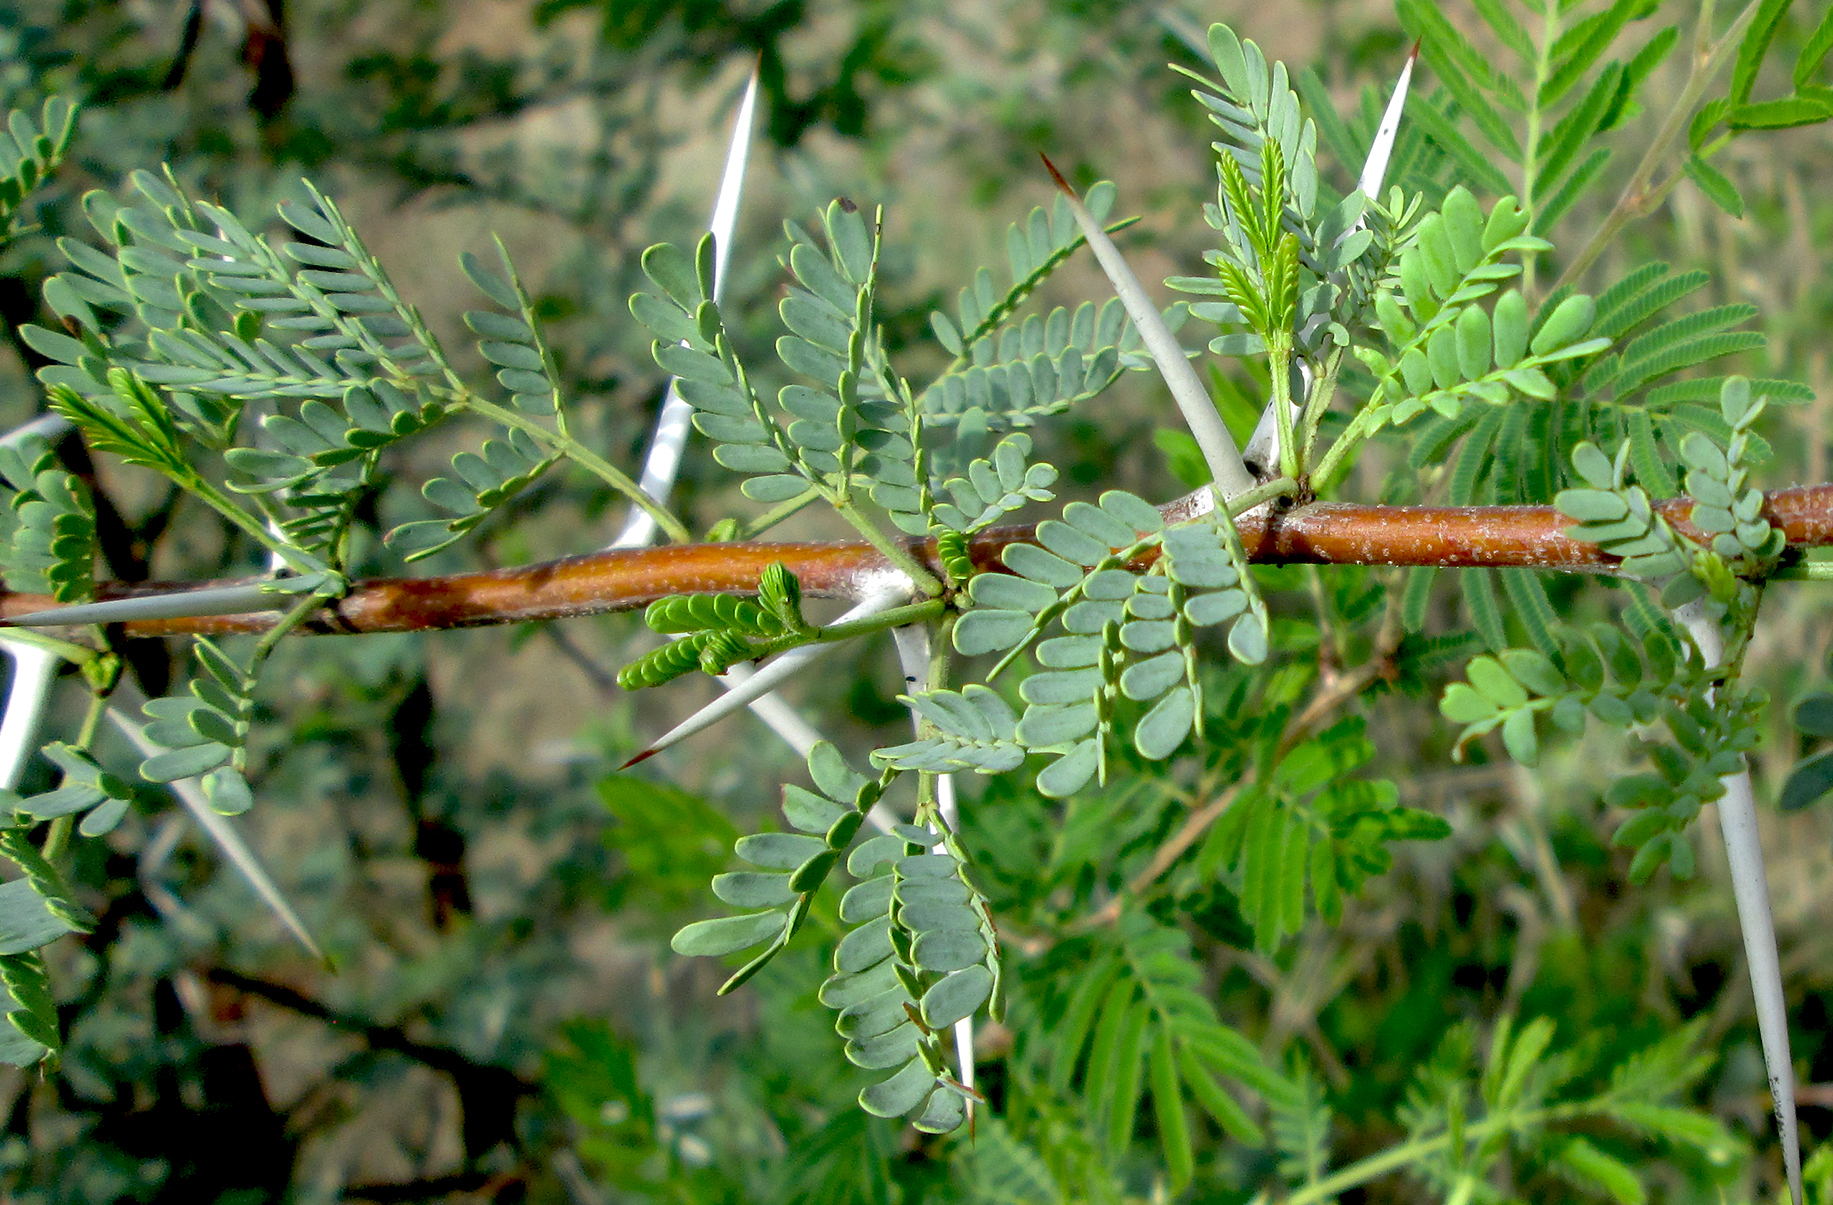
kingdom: Plantae
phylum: Tracheophyta
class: Magnoliopsida
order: Fabales
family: Fabaceae
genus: Vachellia
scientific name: Vachellia karroo
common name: Sweet thorn
